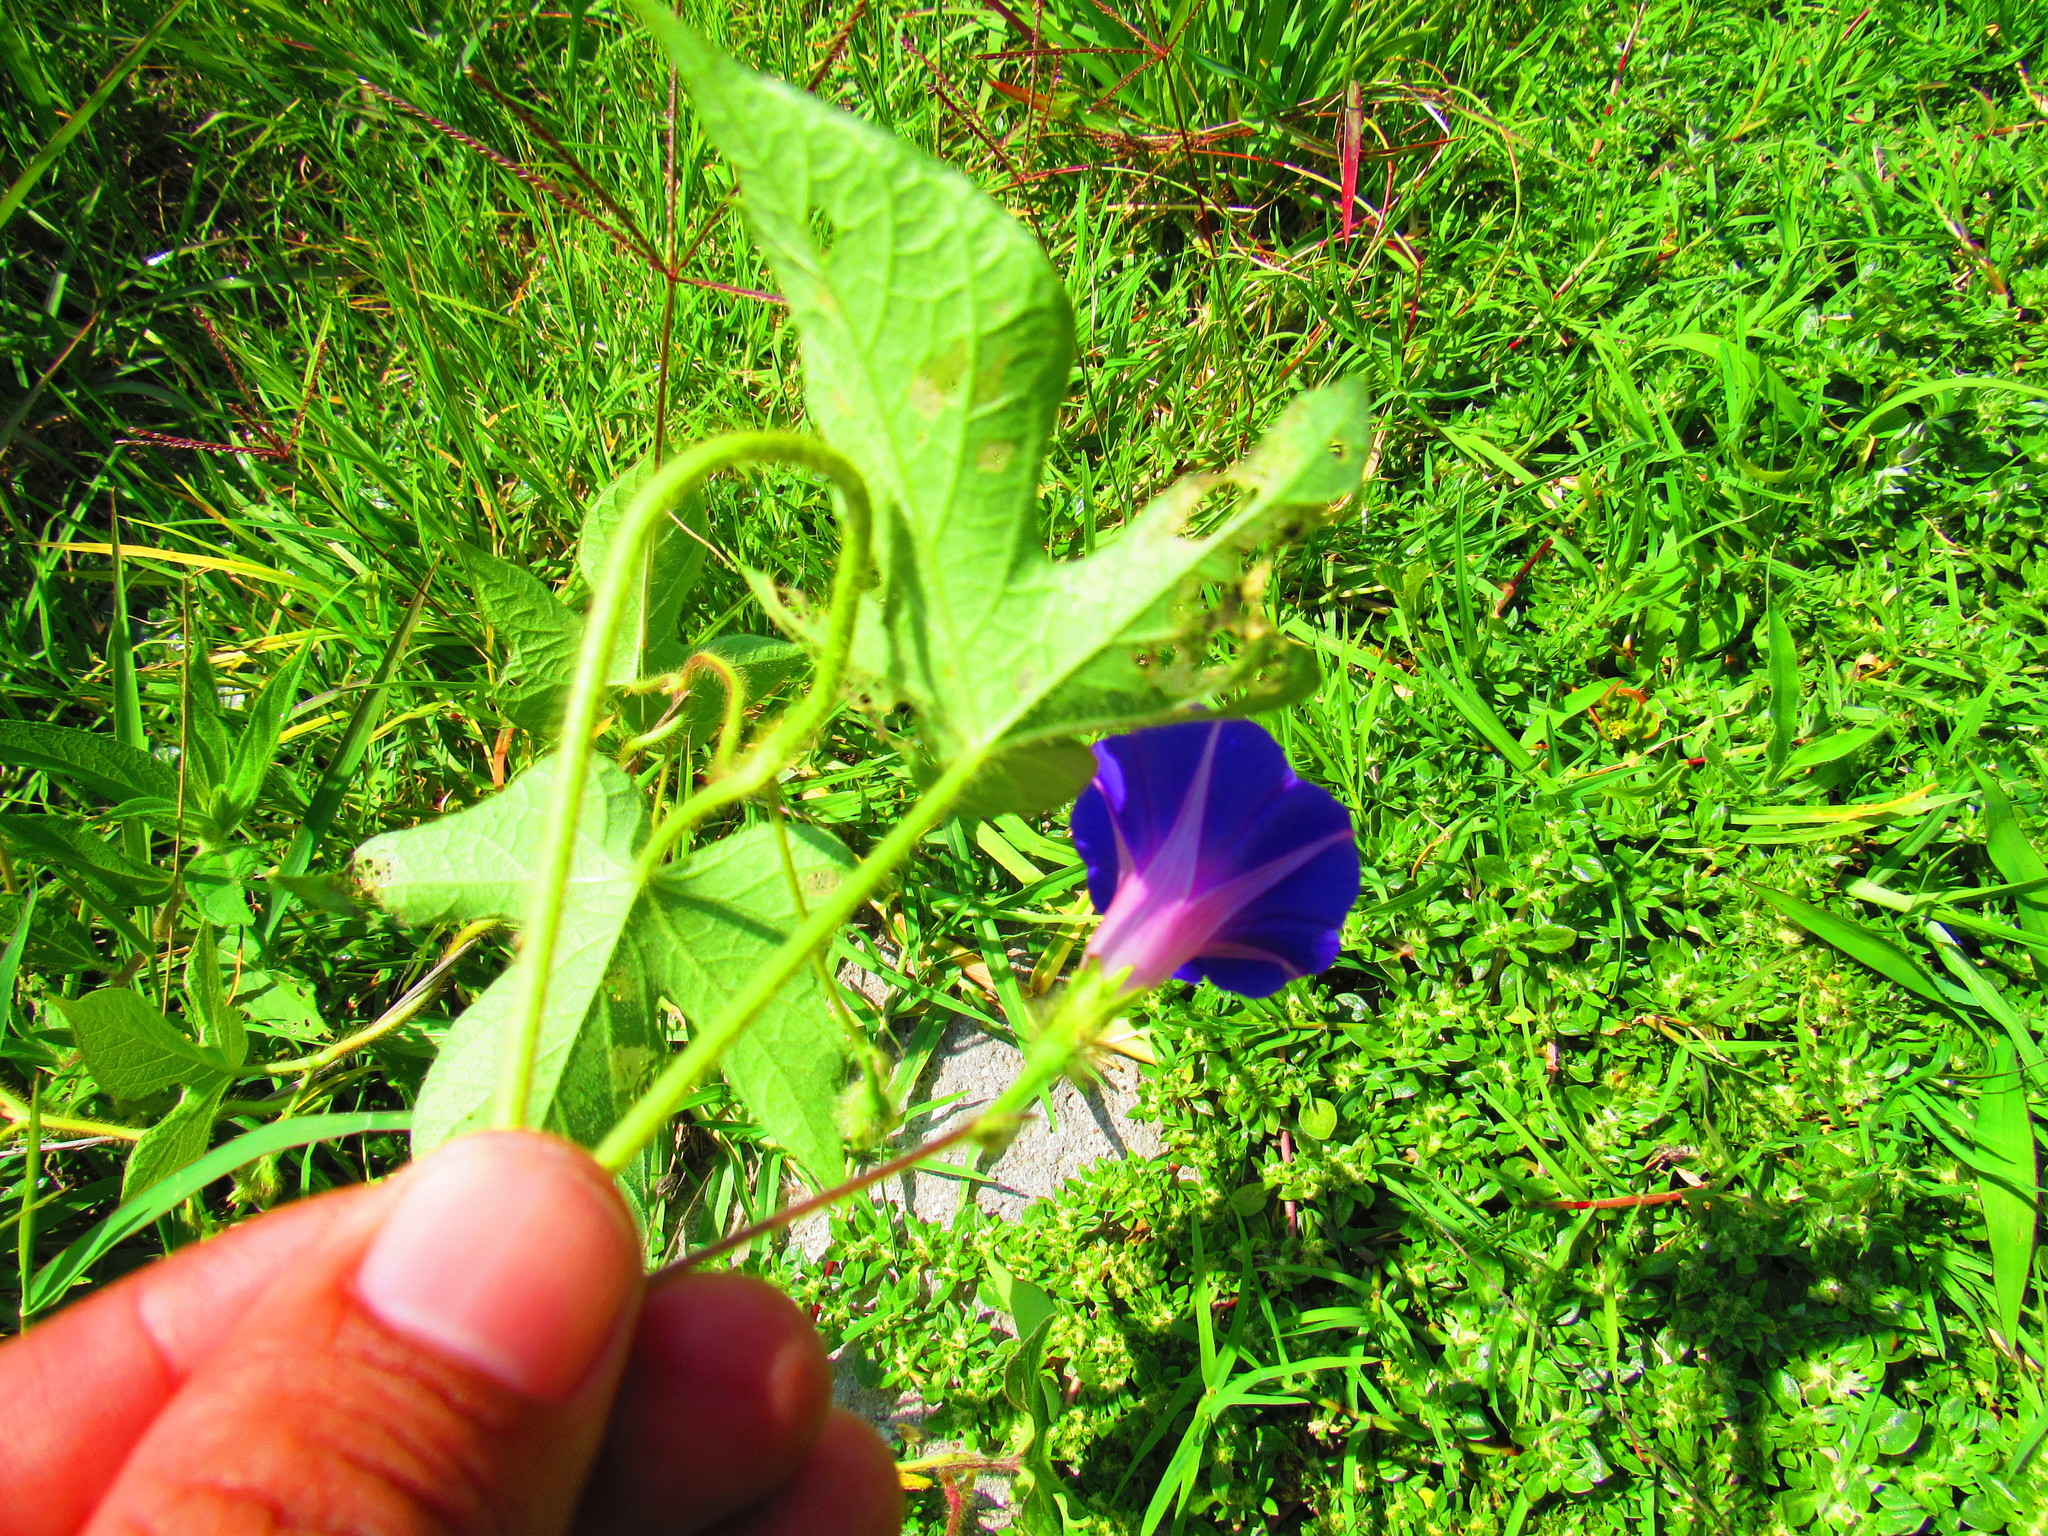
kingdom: Plantae
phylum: Tracheophyta
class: Magnoliopsida
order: Solanales
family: Convolvulaceae
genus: Ipomoea
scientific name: Ipomoea purpurea
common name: Common morning-glory
